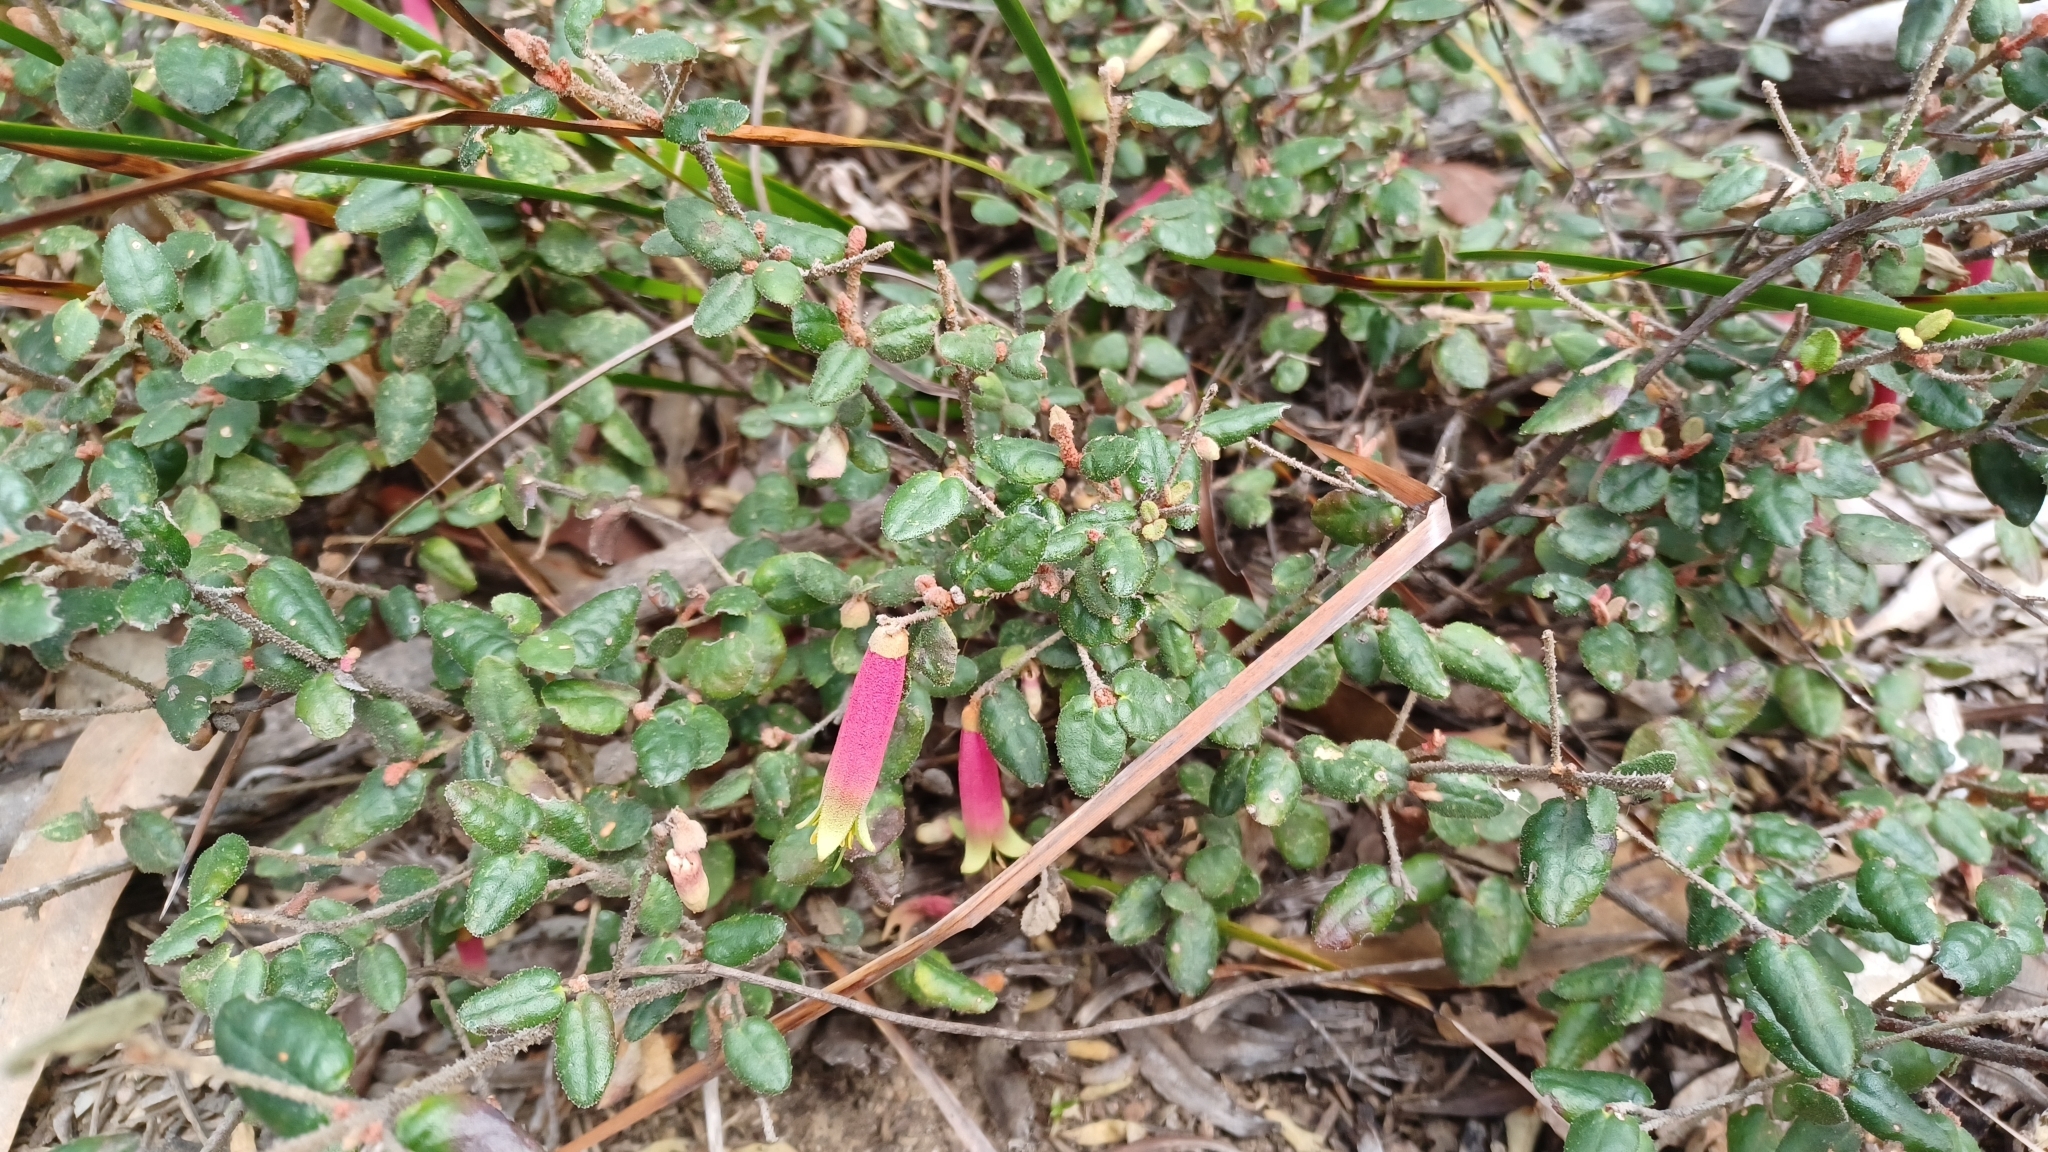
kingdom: Plantae
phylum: Tracheophyta
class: Magnoliopsida
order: Sapindales
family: Rutaceae
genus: Correa
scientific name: Correa reflexa
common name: Common correa
